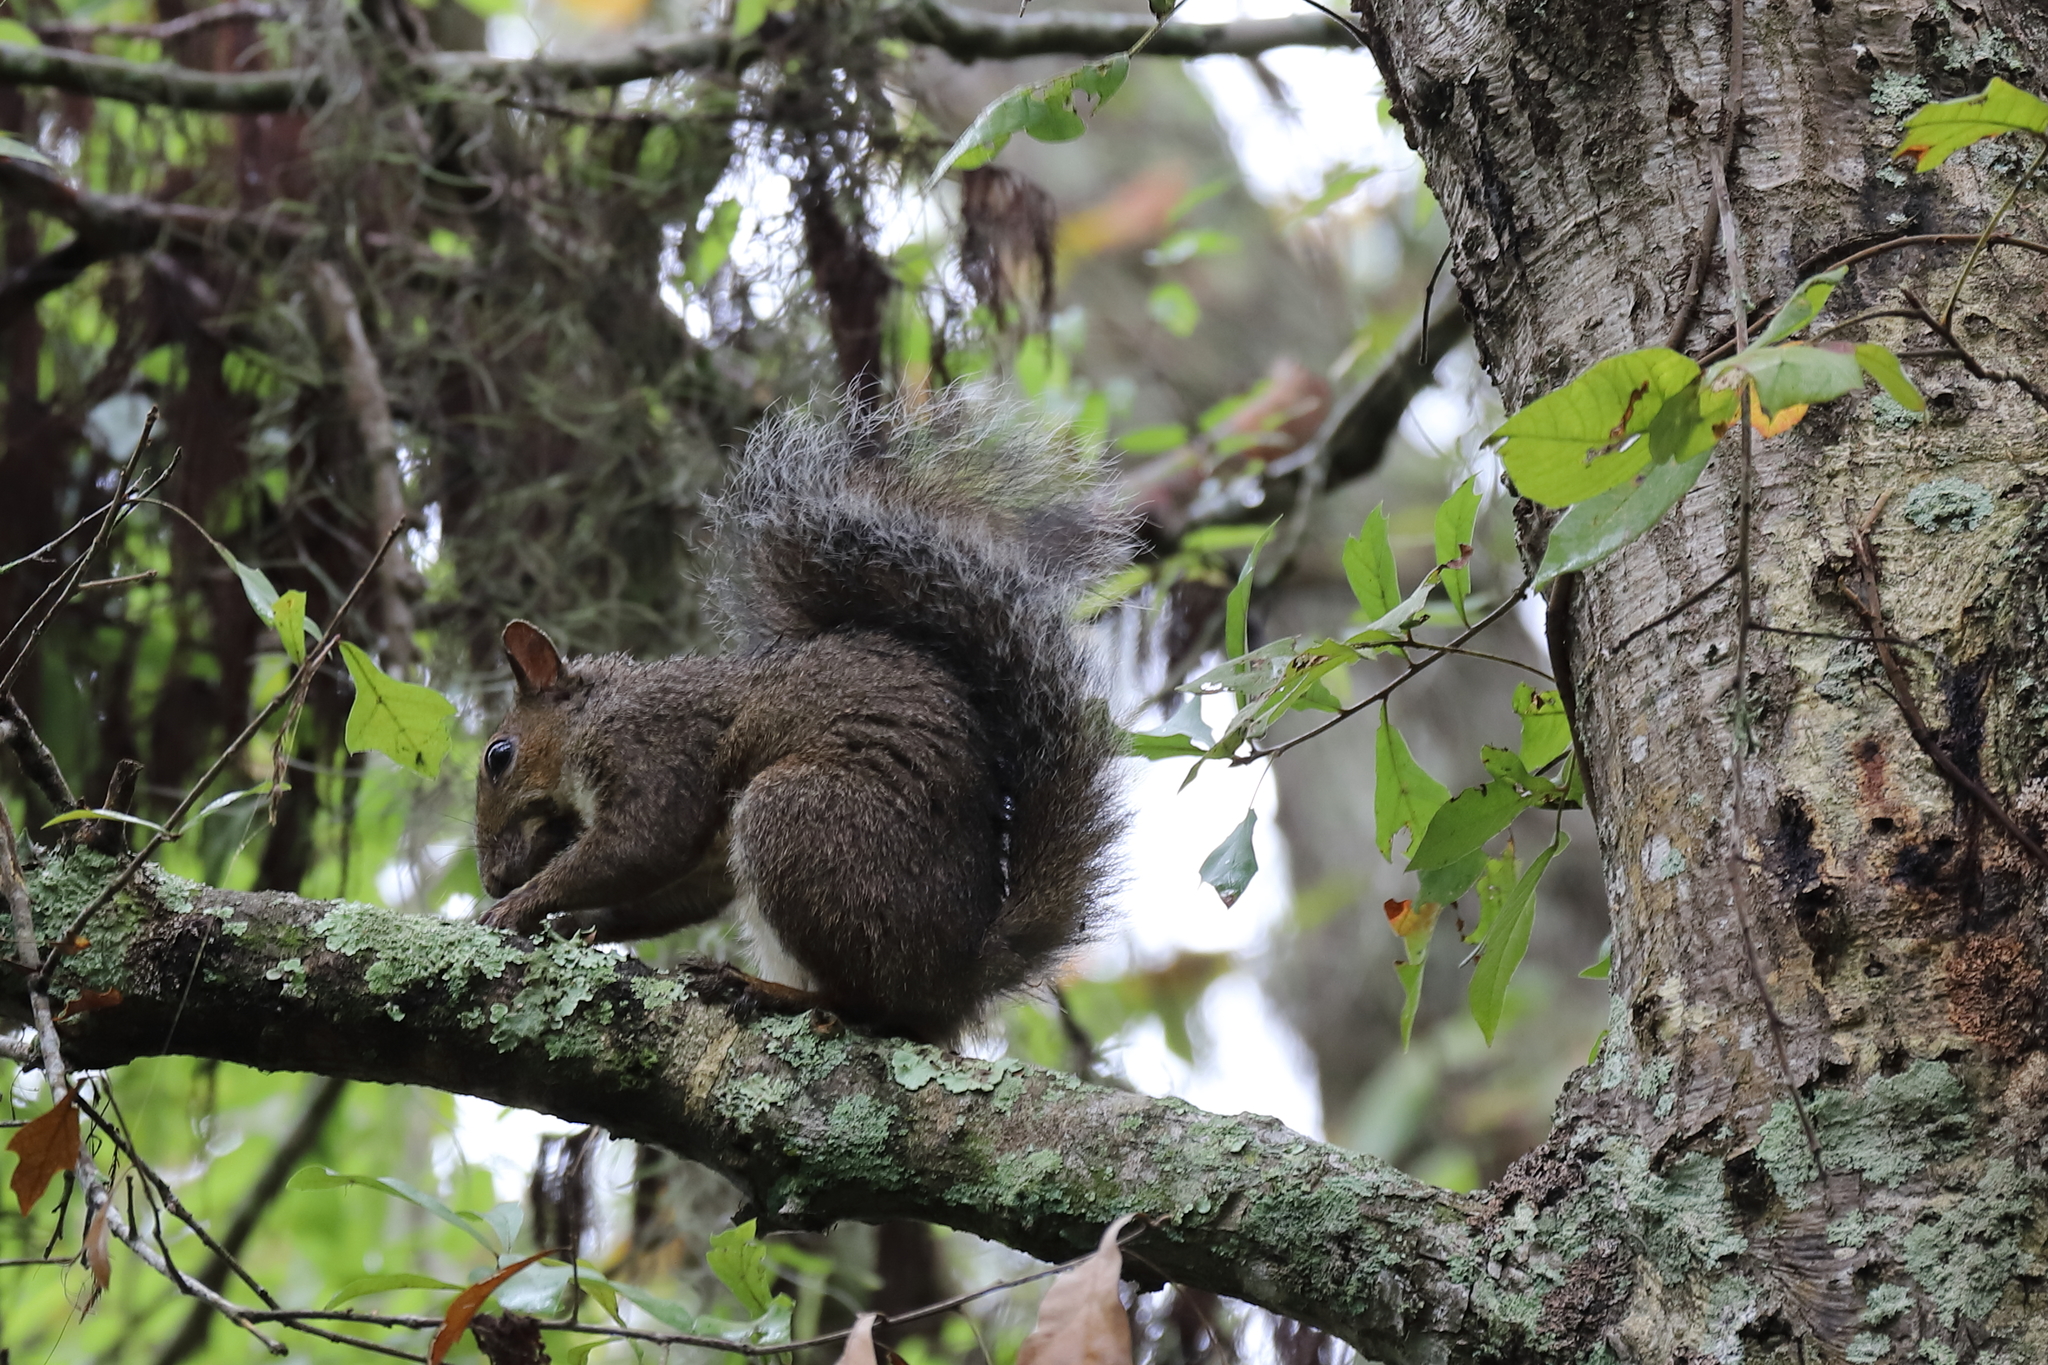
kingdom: Animalia
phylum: Chordata
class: Mammalia
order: Rodentia
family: Sciuridae
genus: Sciurus
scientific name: Sciurus carolinensis
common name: Eastern gray squirrel
